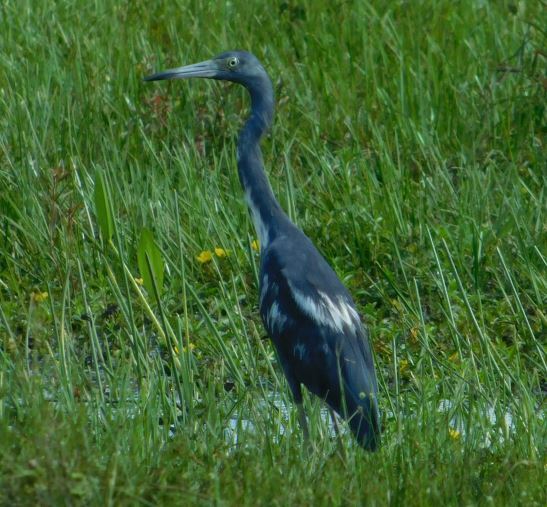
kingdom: Animalia
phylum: Chordata
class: Aves
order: Pelecaniformes
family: Ardeidae
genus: Egretta
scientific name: Egretta caerulea
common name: Little blue heron
